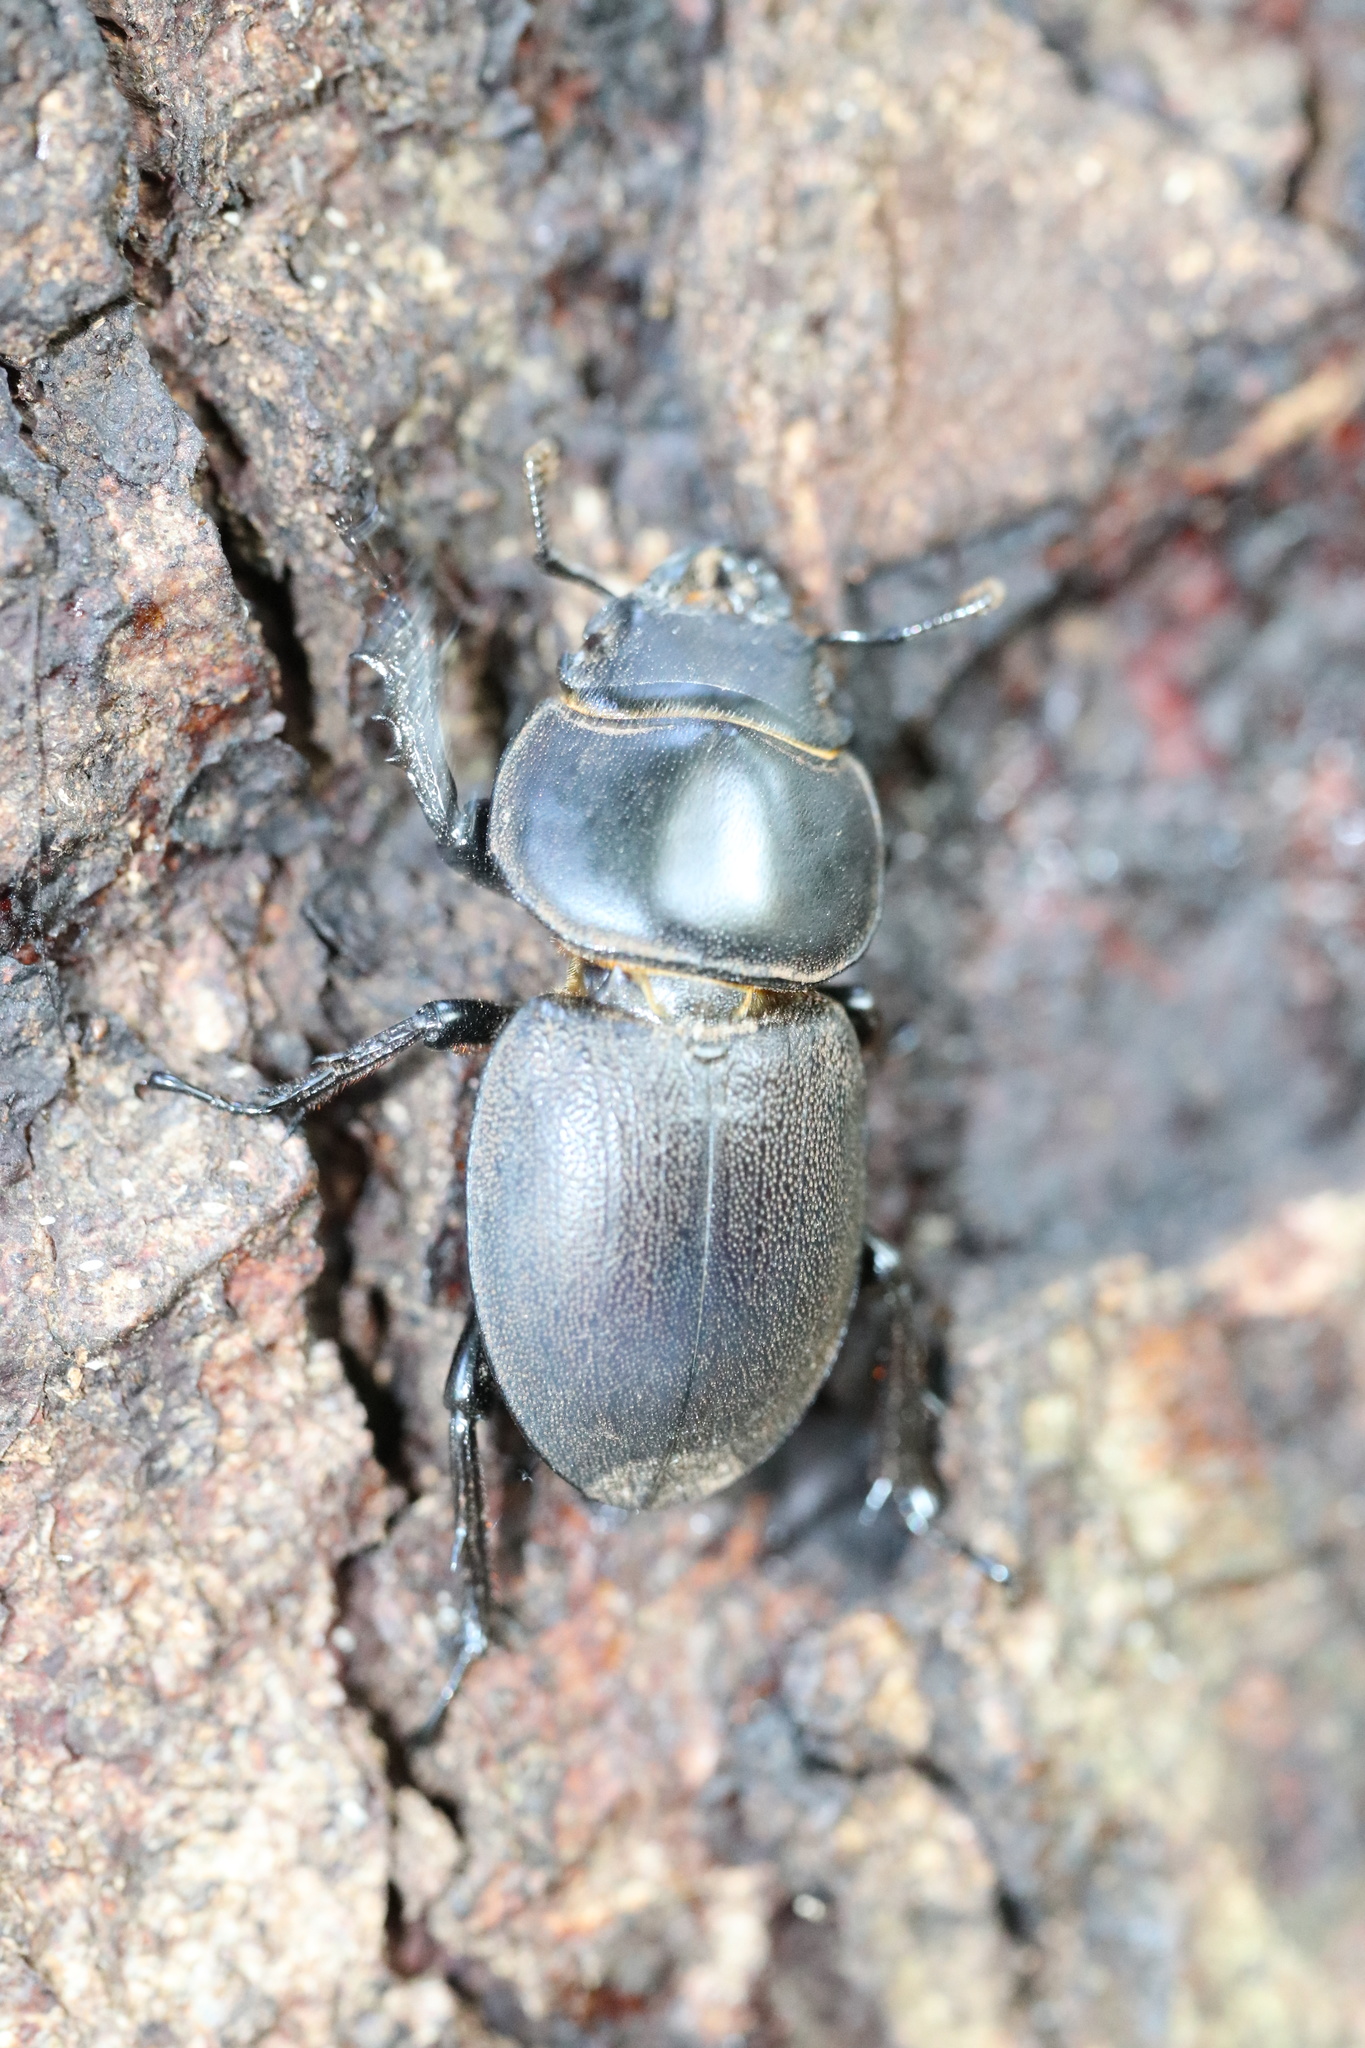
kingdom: Animalia
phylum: Arthropoda
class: Insecta
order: Coleoptera
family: Lucanidae
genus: Apterodorcus
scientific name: Apterodorcus bacchus
